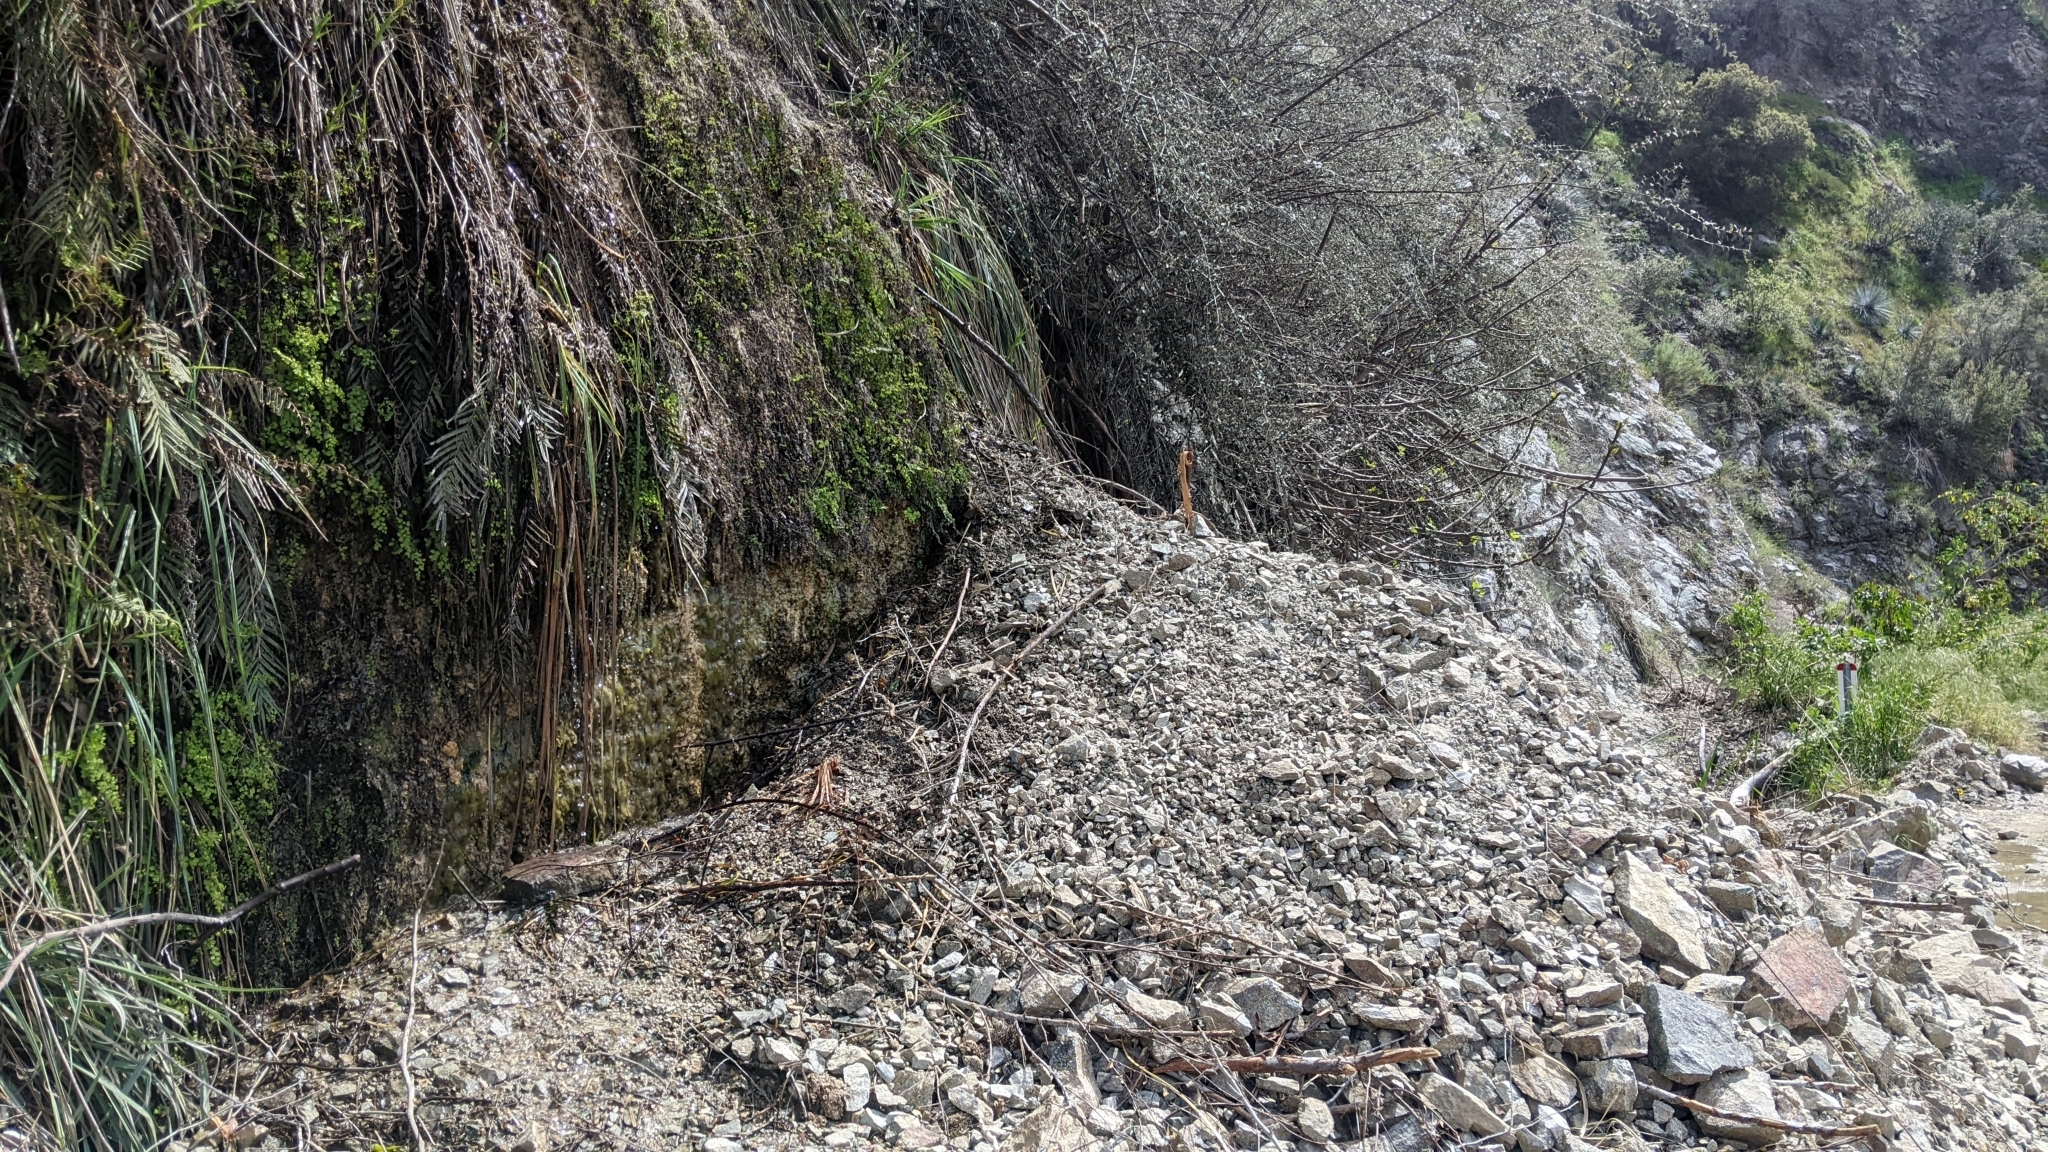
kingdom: Plantae
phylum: Tracheophyta
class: Liliopsida
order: Asparagales
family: Orchidaceae
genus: Epipactis
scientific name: Epipactis gigantea
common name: Chatterbox
